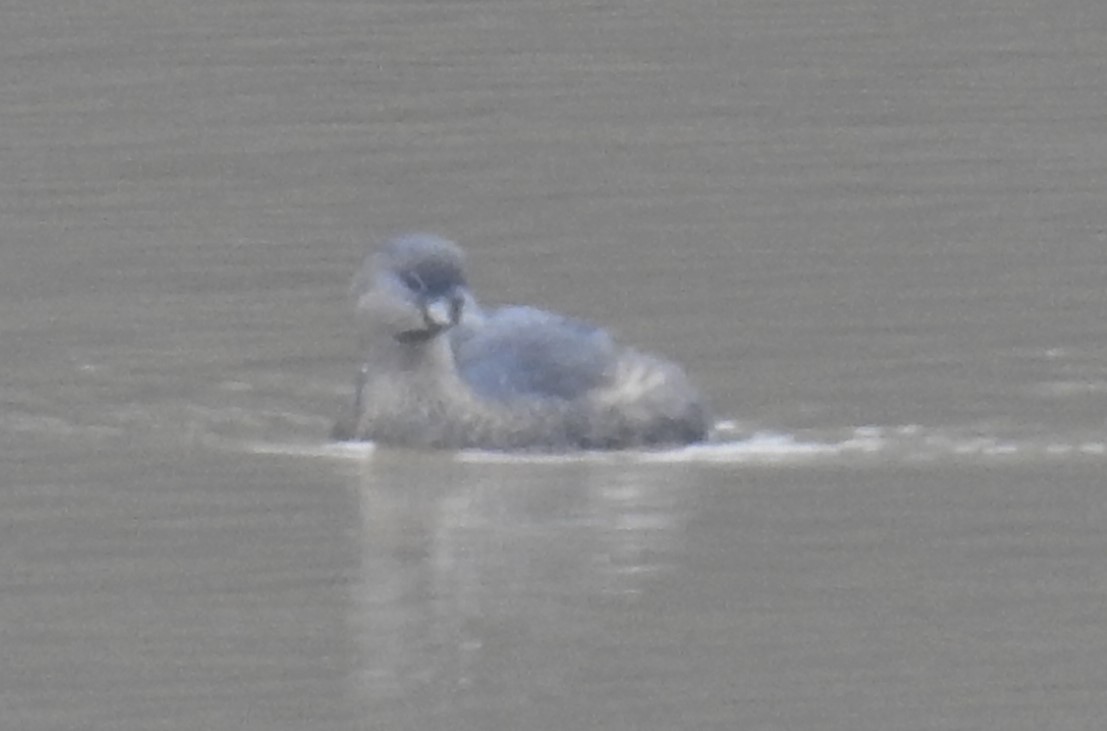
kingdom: Animalia
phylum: Chordata
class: Aves
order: Podicipediformes
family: Podicipedidae
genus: Podilymbus
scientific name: Podilymbus podiceps
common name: Pied-billed grebe
